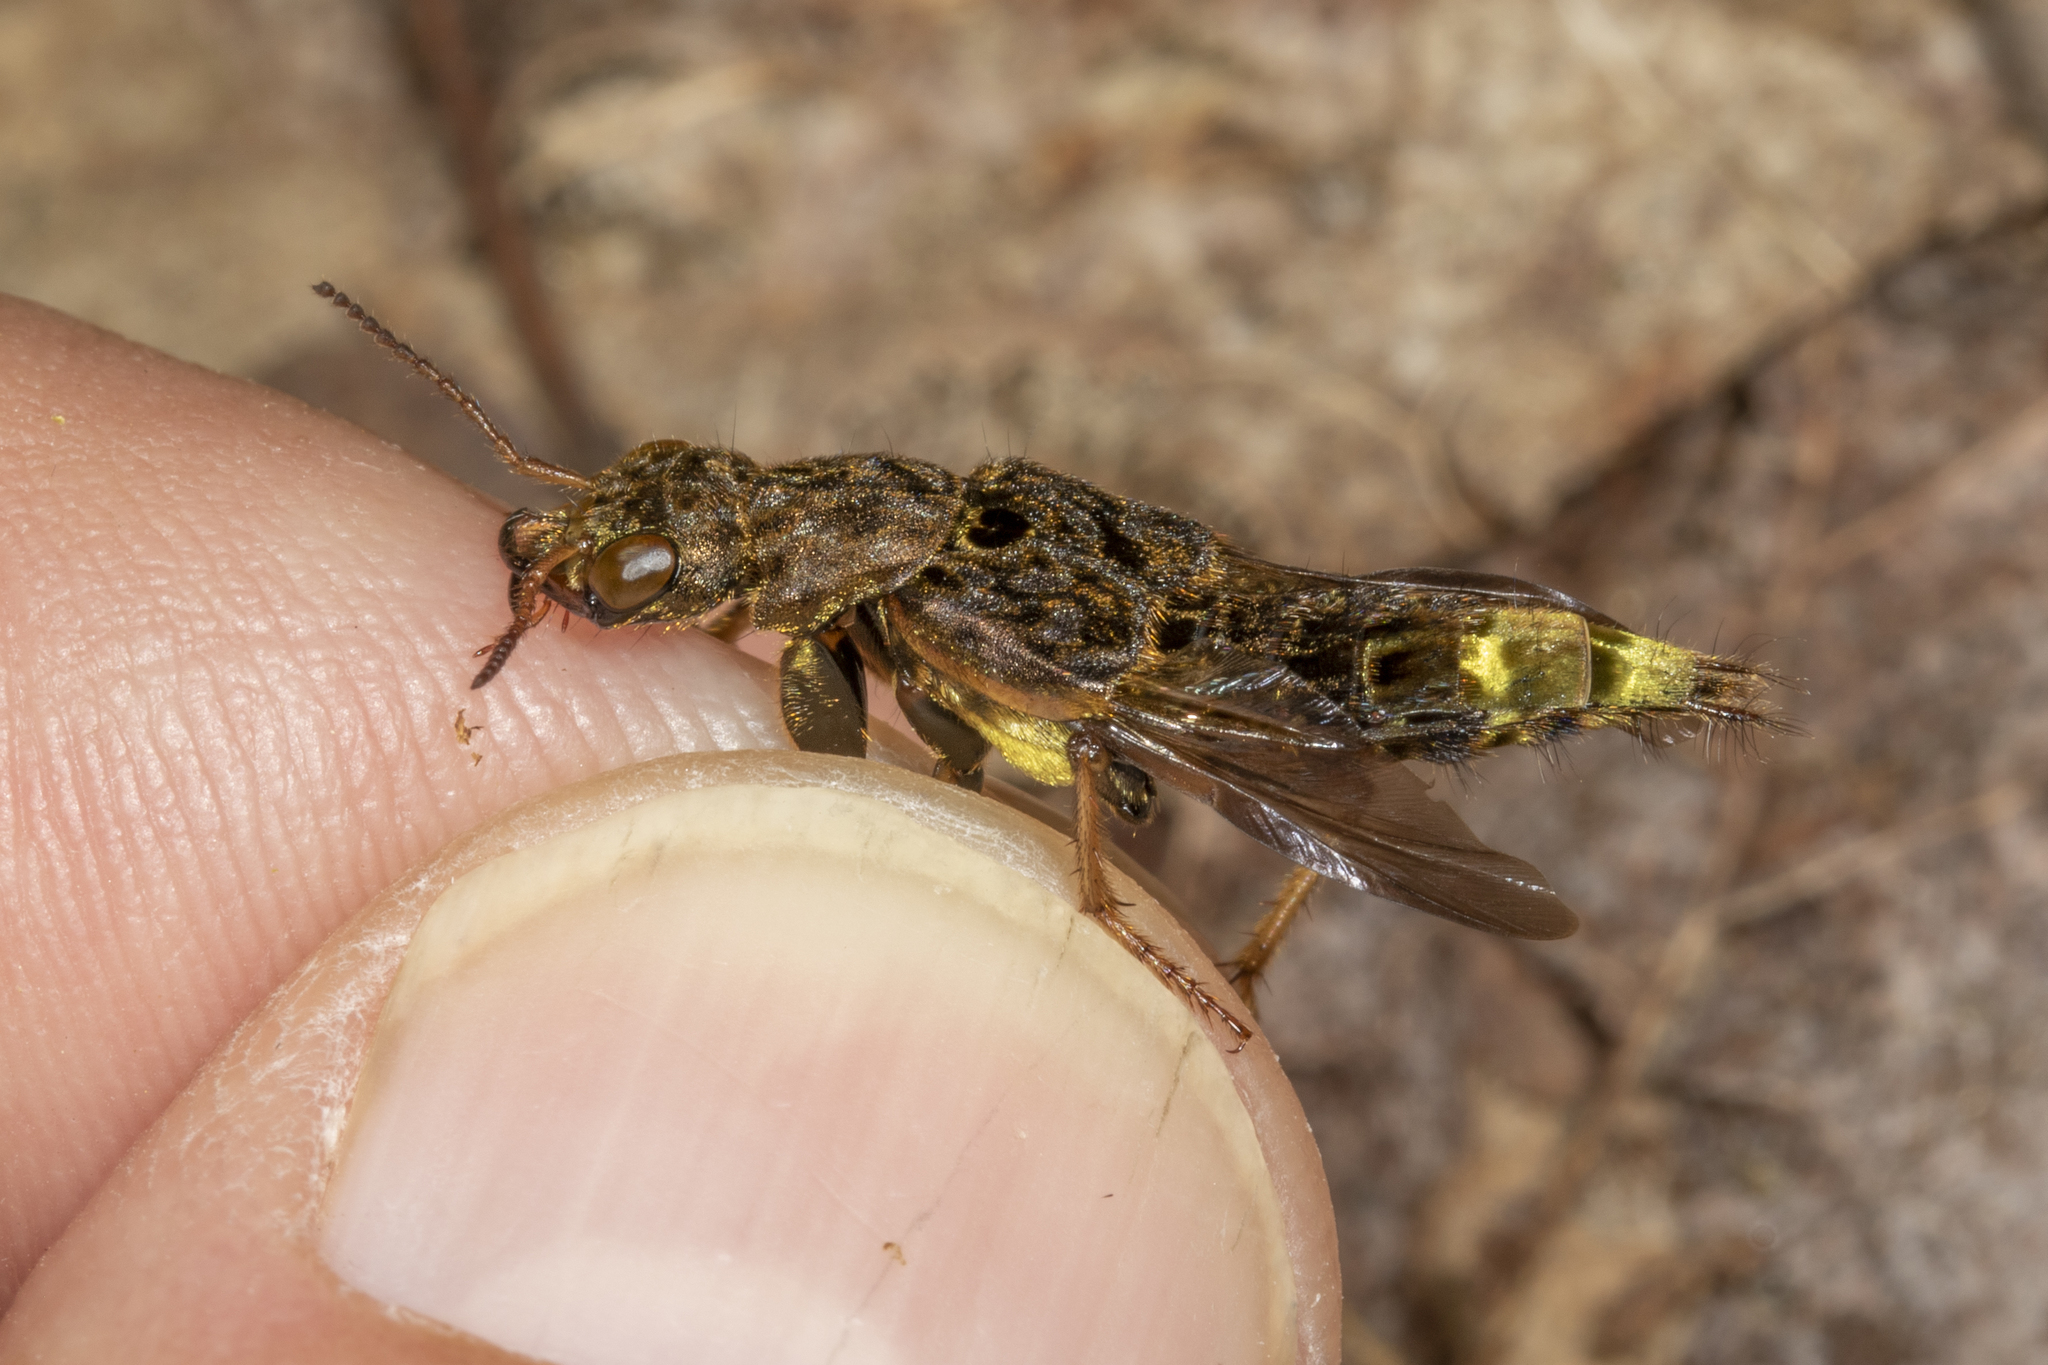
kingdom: Animalia
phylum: Arthropoda
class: Insecta
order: Coleoptera
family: Staphylinidae
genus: Ontholestes
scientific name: Ontholestes cingulatus
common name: Gold-and-brown rove beetle
